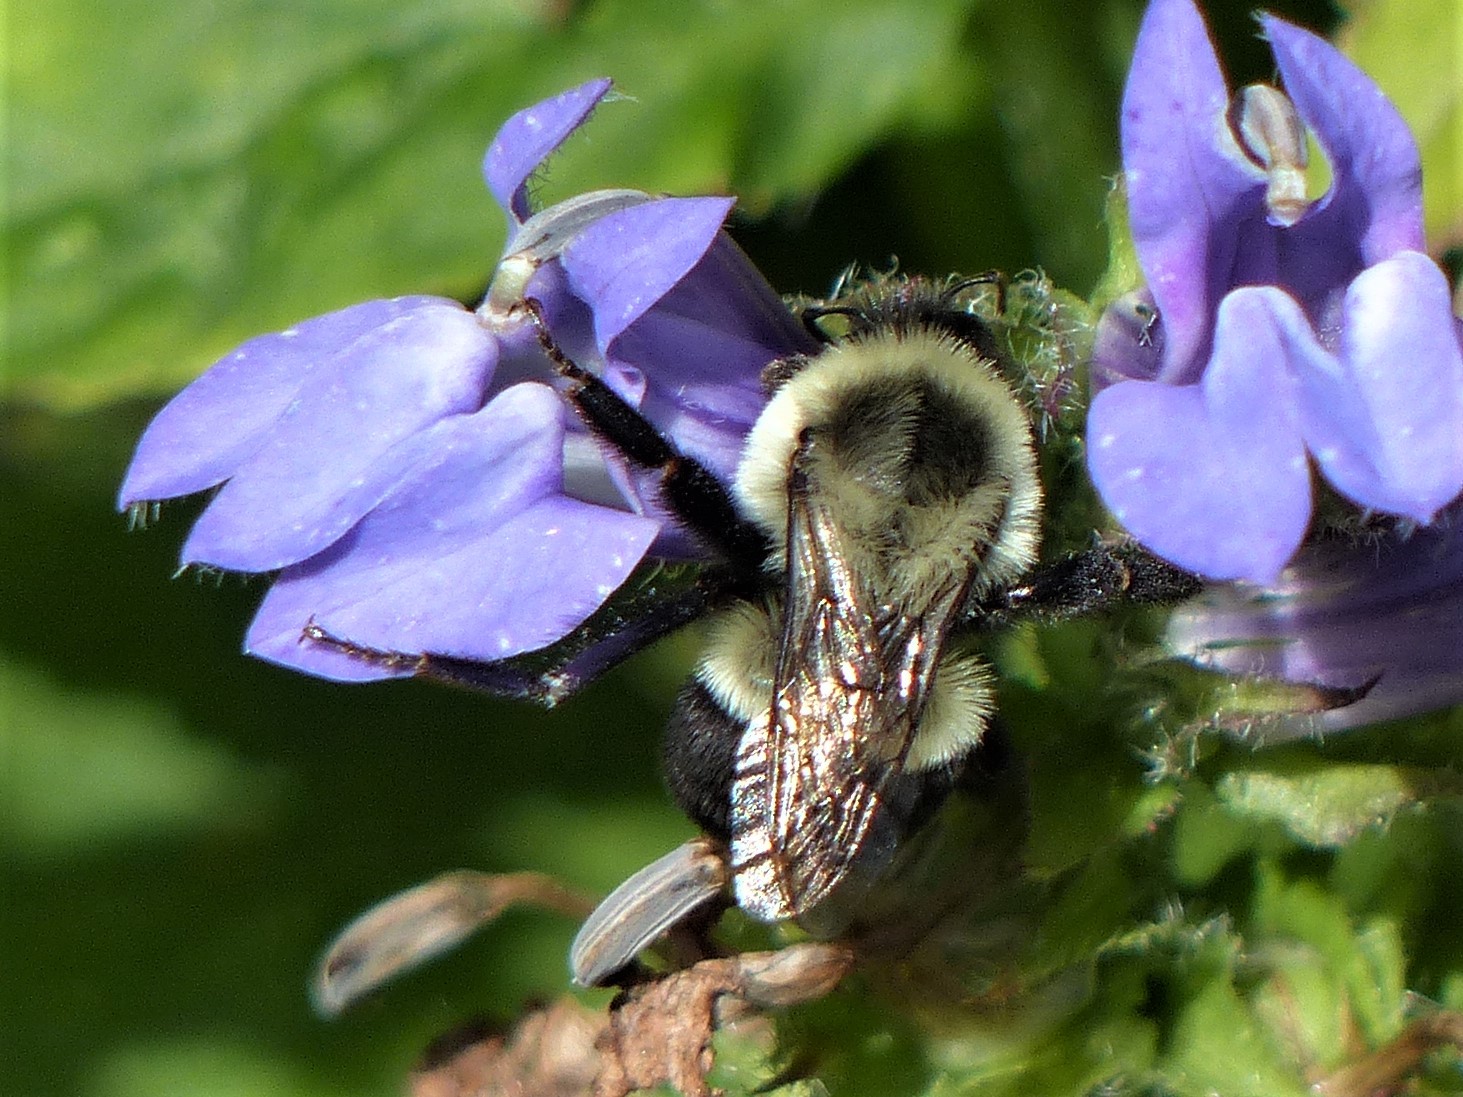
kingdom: Animalia
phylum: Arthropoda
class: Insecta
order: Hymenoptera
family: Apidae
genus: Bombus
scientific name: Bombus impatiens
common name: Common eastern bumble bee
